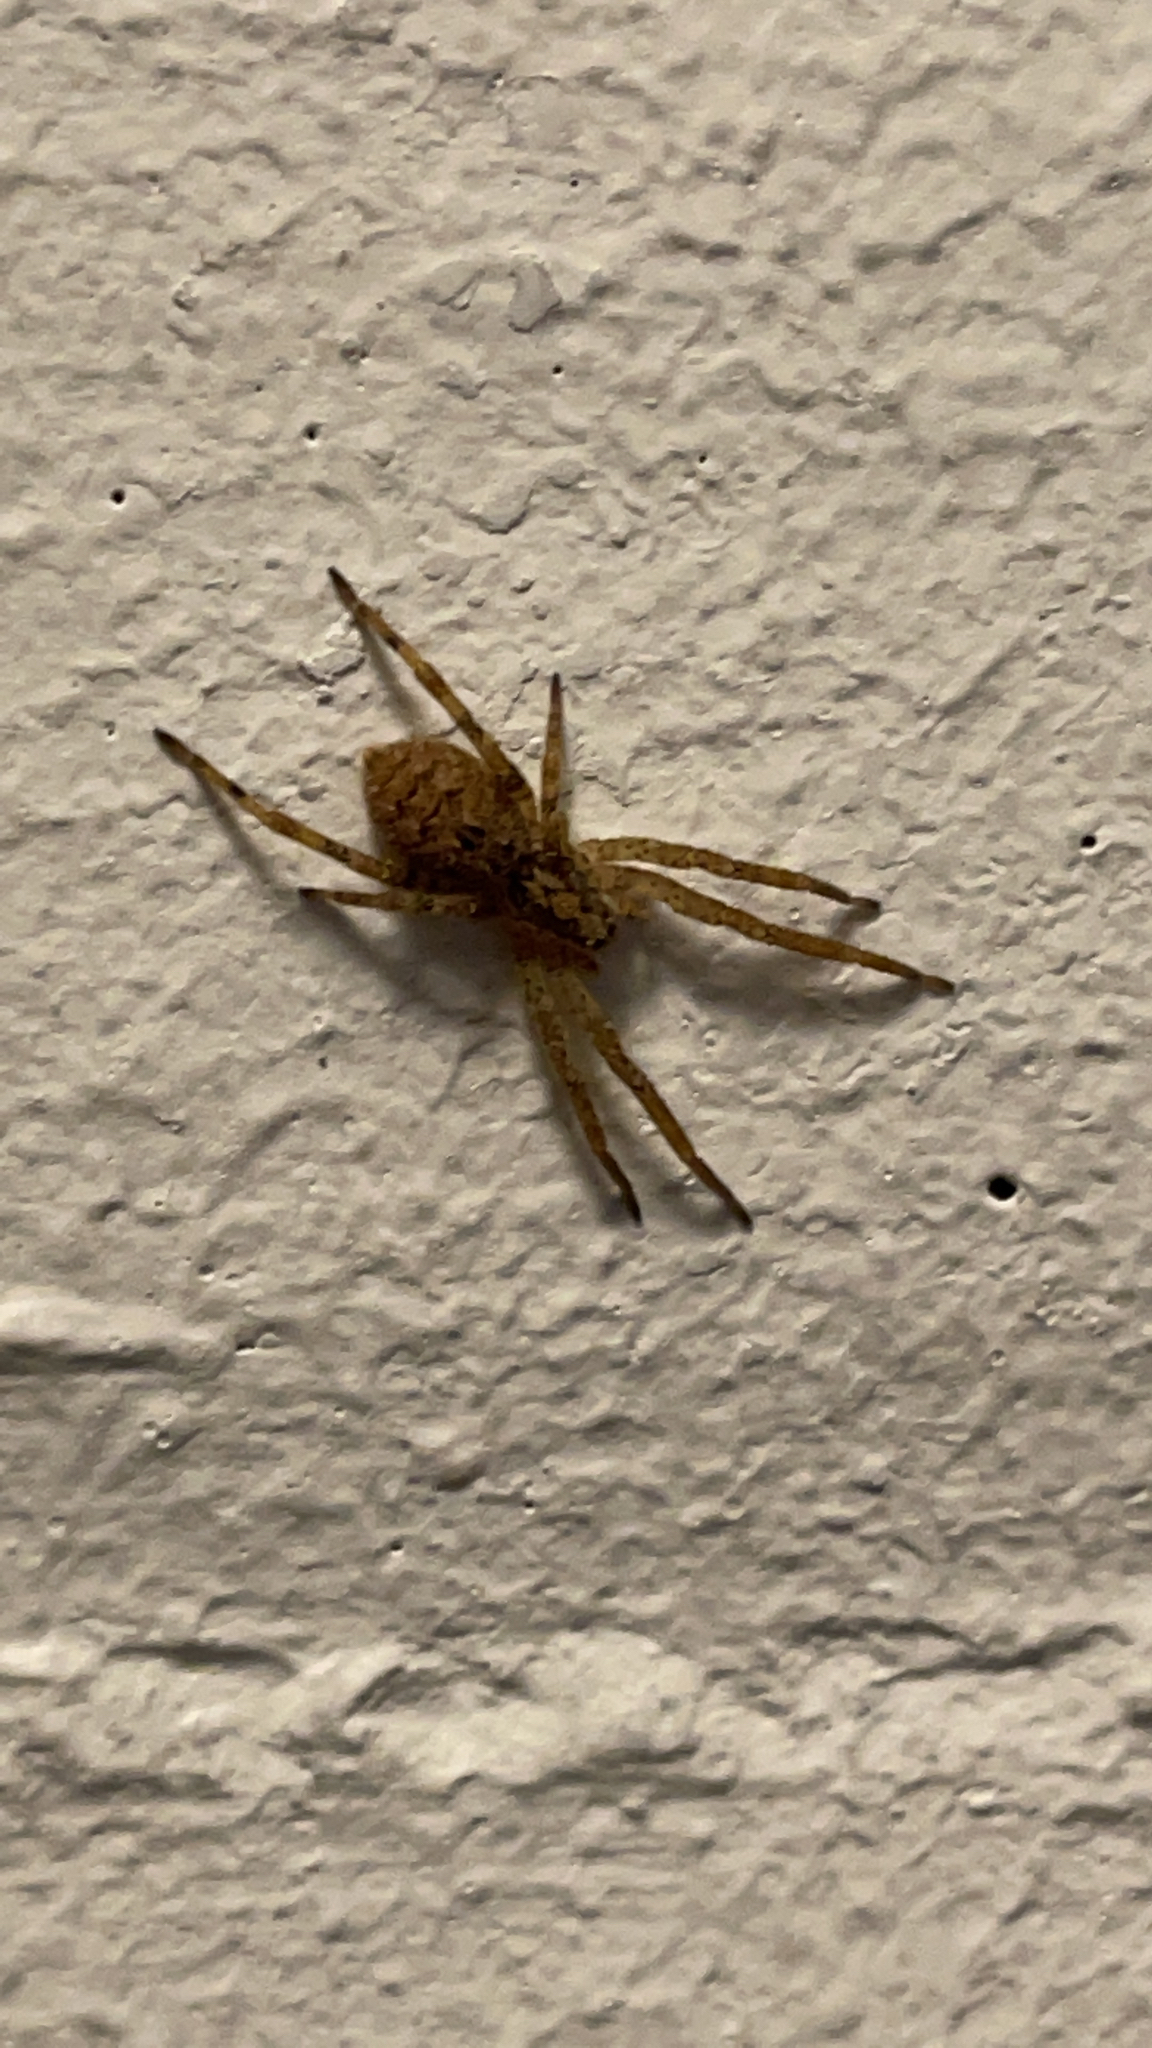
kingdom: Animalia
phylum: Arthropoda
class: Arachnida
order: Araneae
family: Zoropsidae
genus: Zoropsis
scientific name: Zoropsis spinimana
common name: Zoropsid spider
